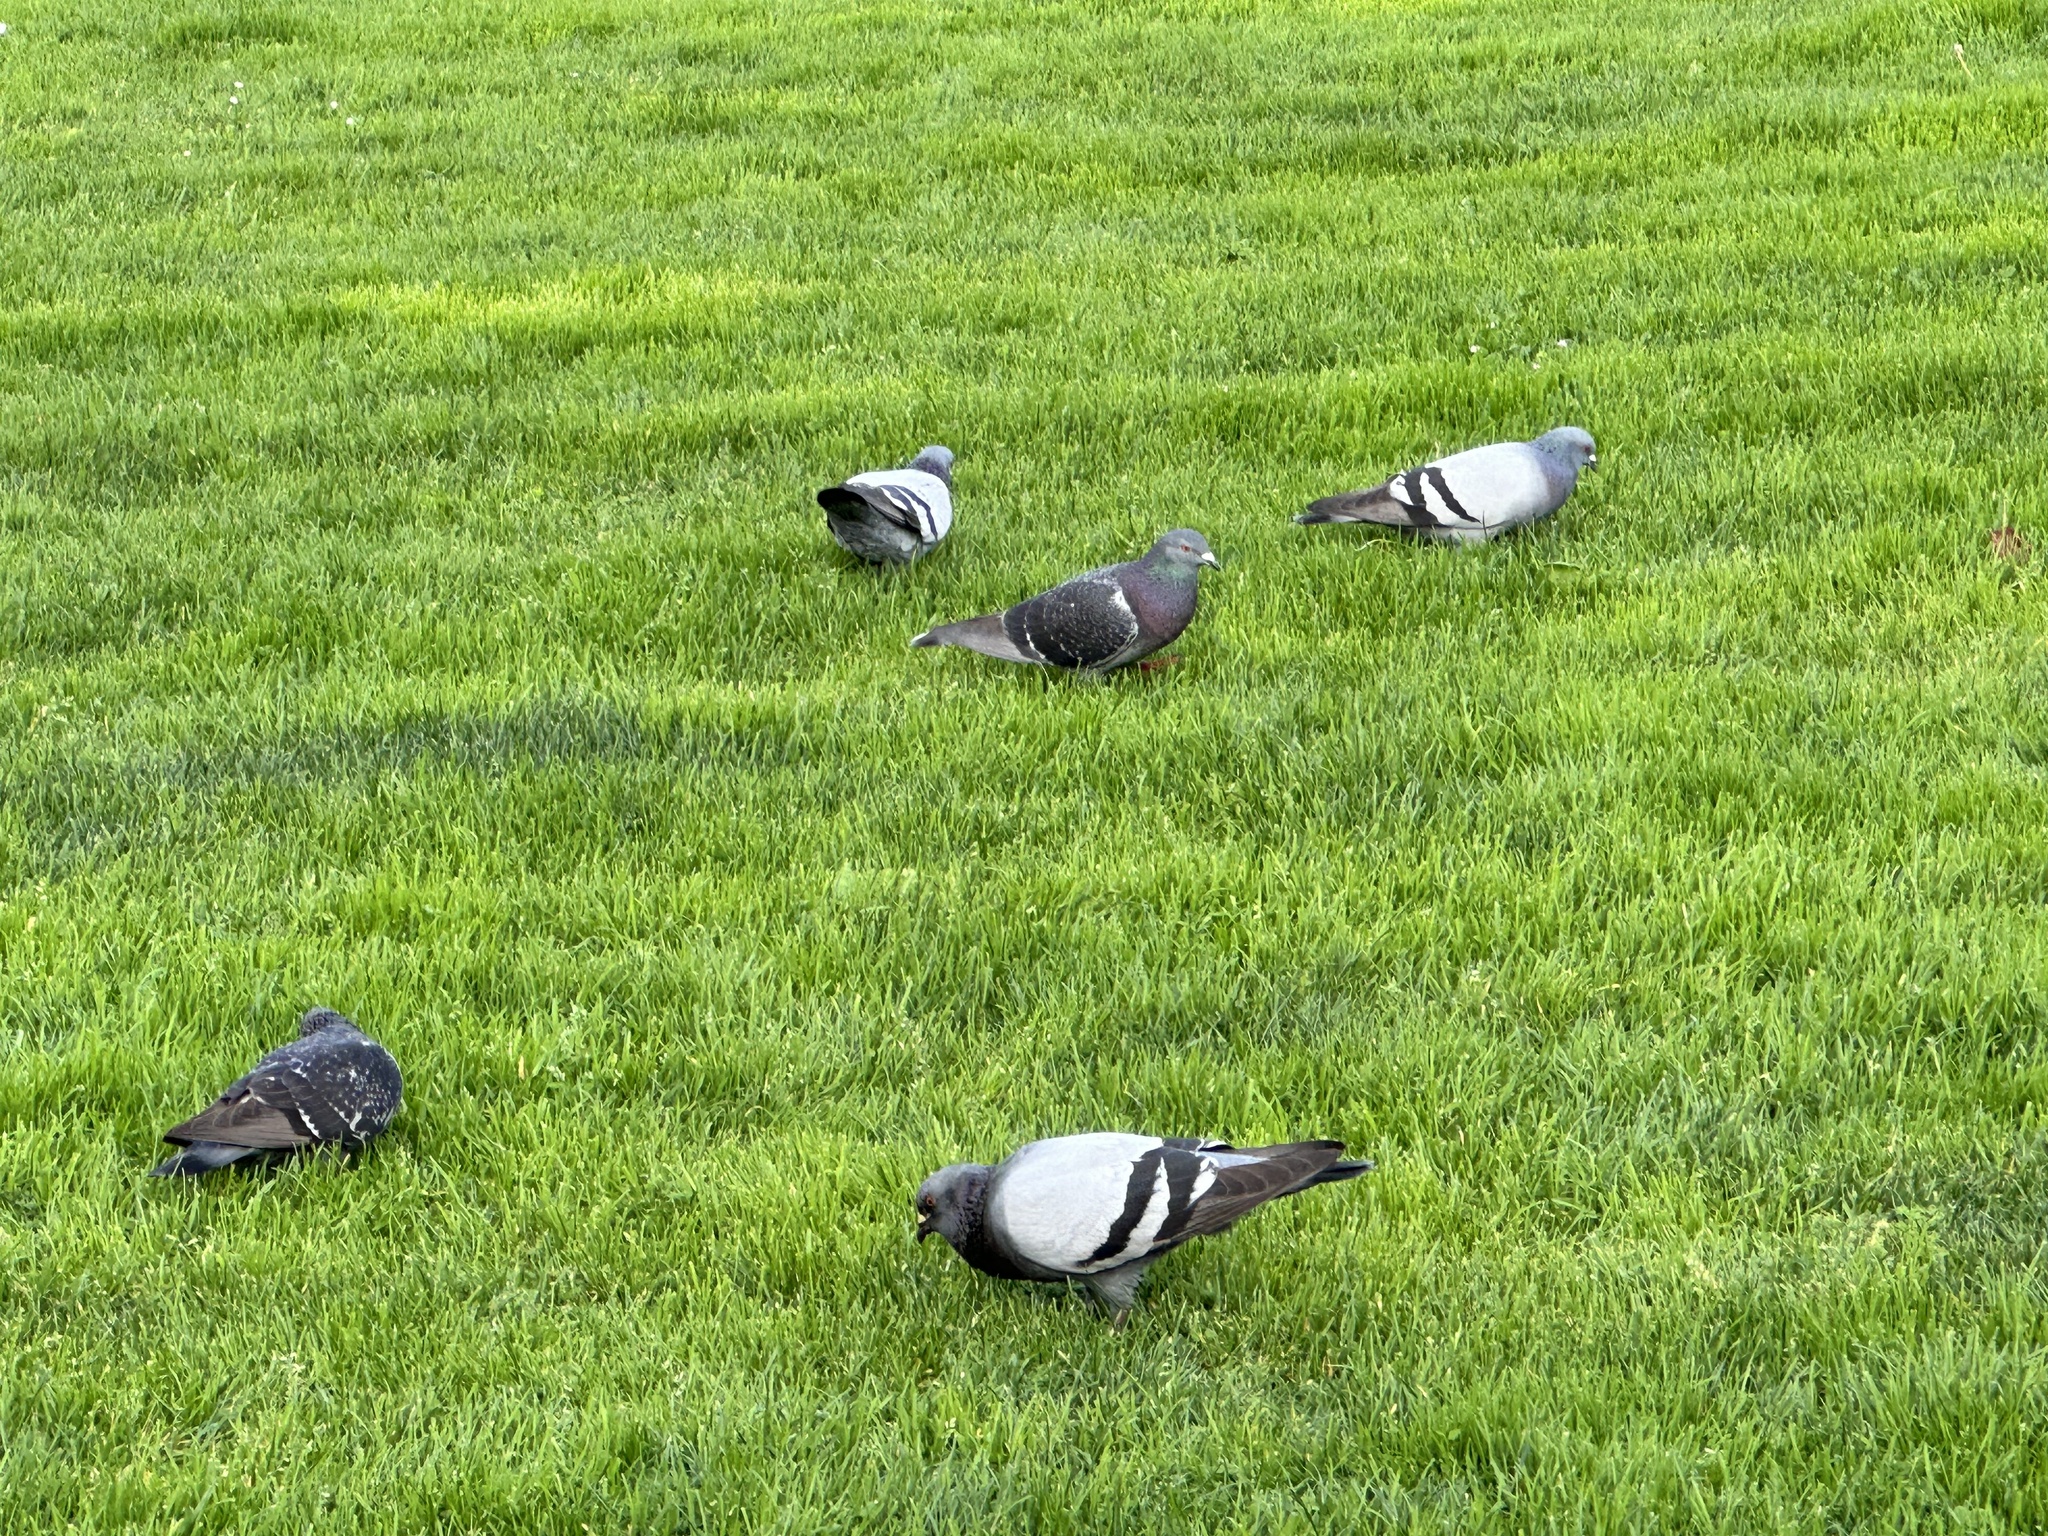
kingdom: Animalia
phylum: Chordata
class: Aves
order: Columbiformes
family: Columbidae
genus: Columba
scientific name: Columba livia
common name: Rock pigeon
